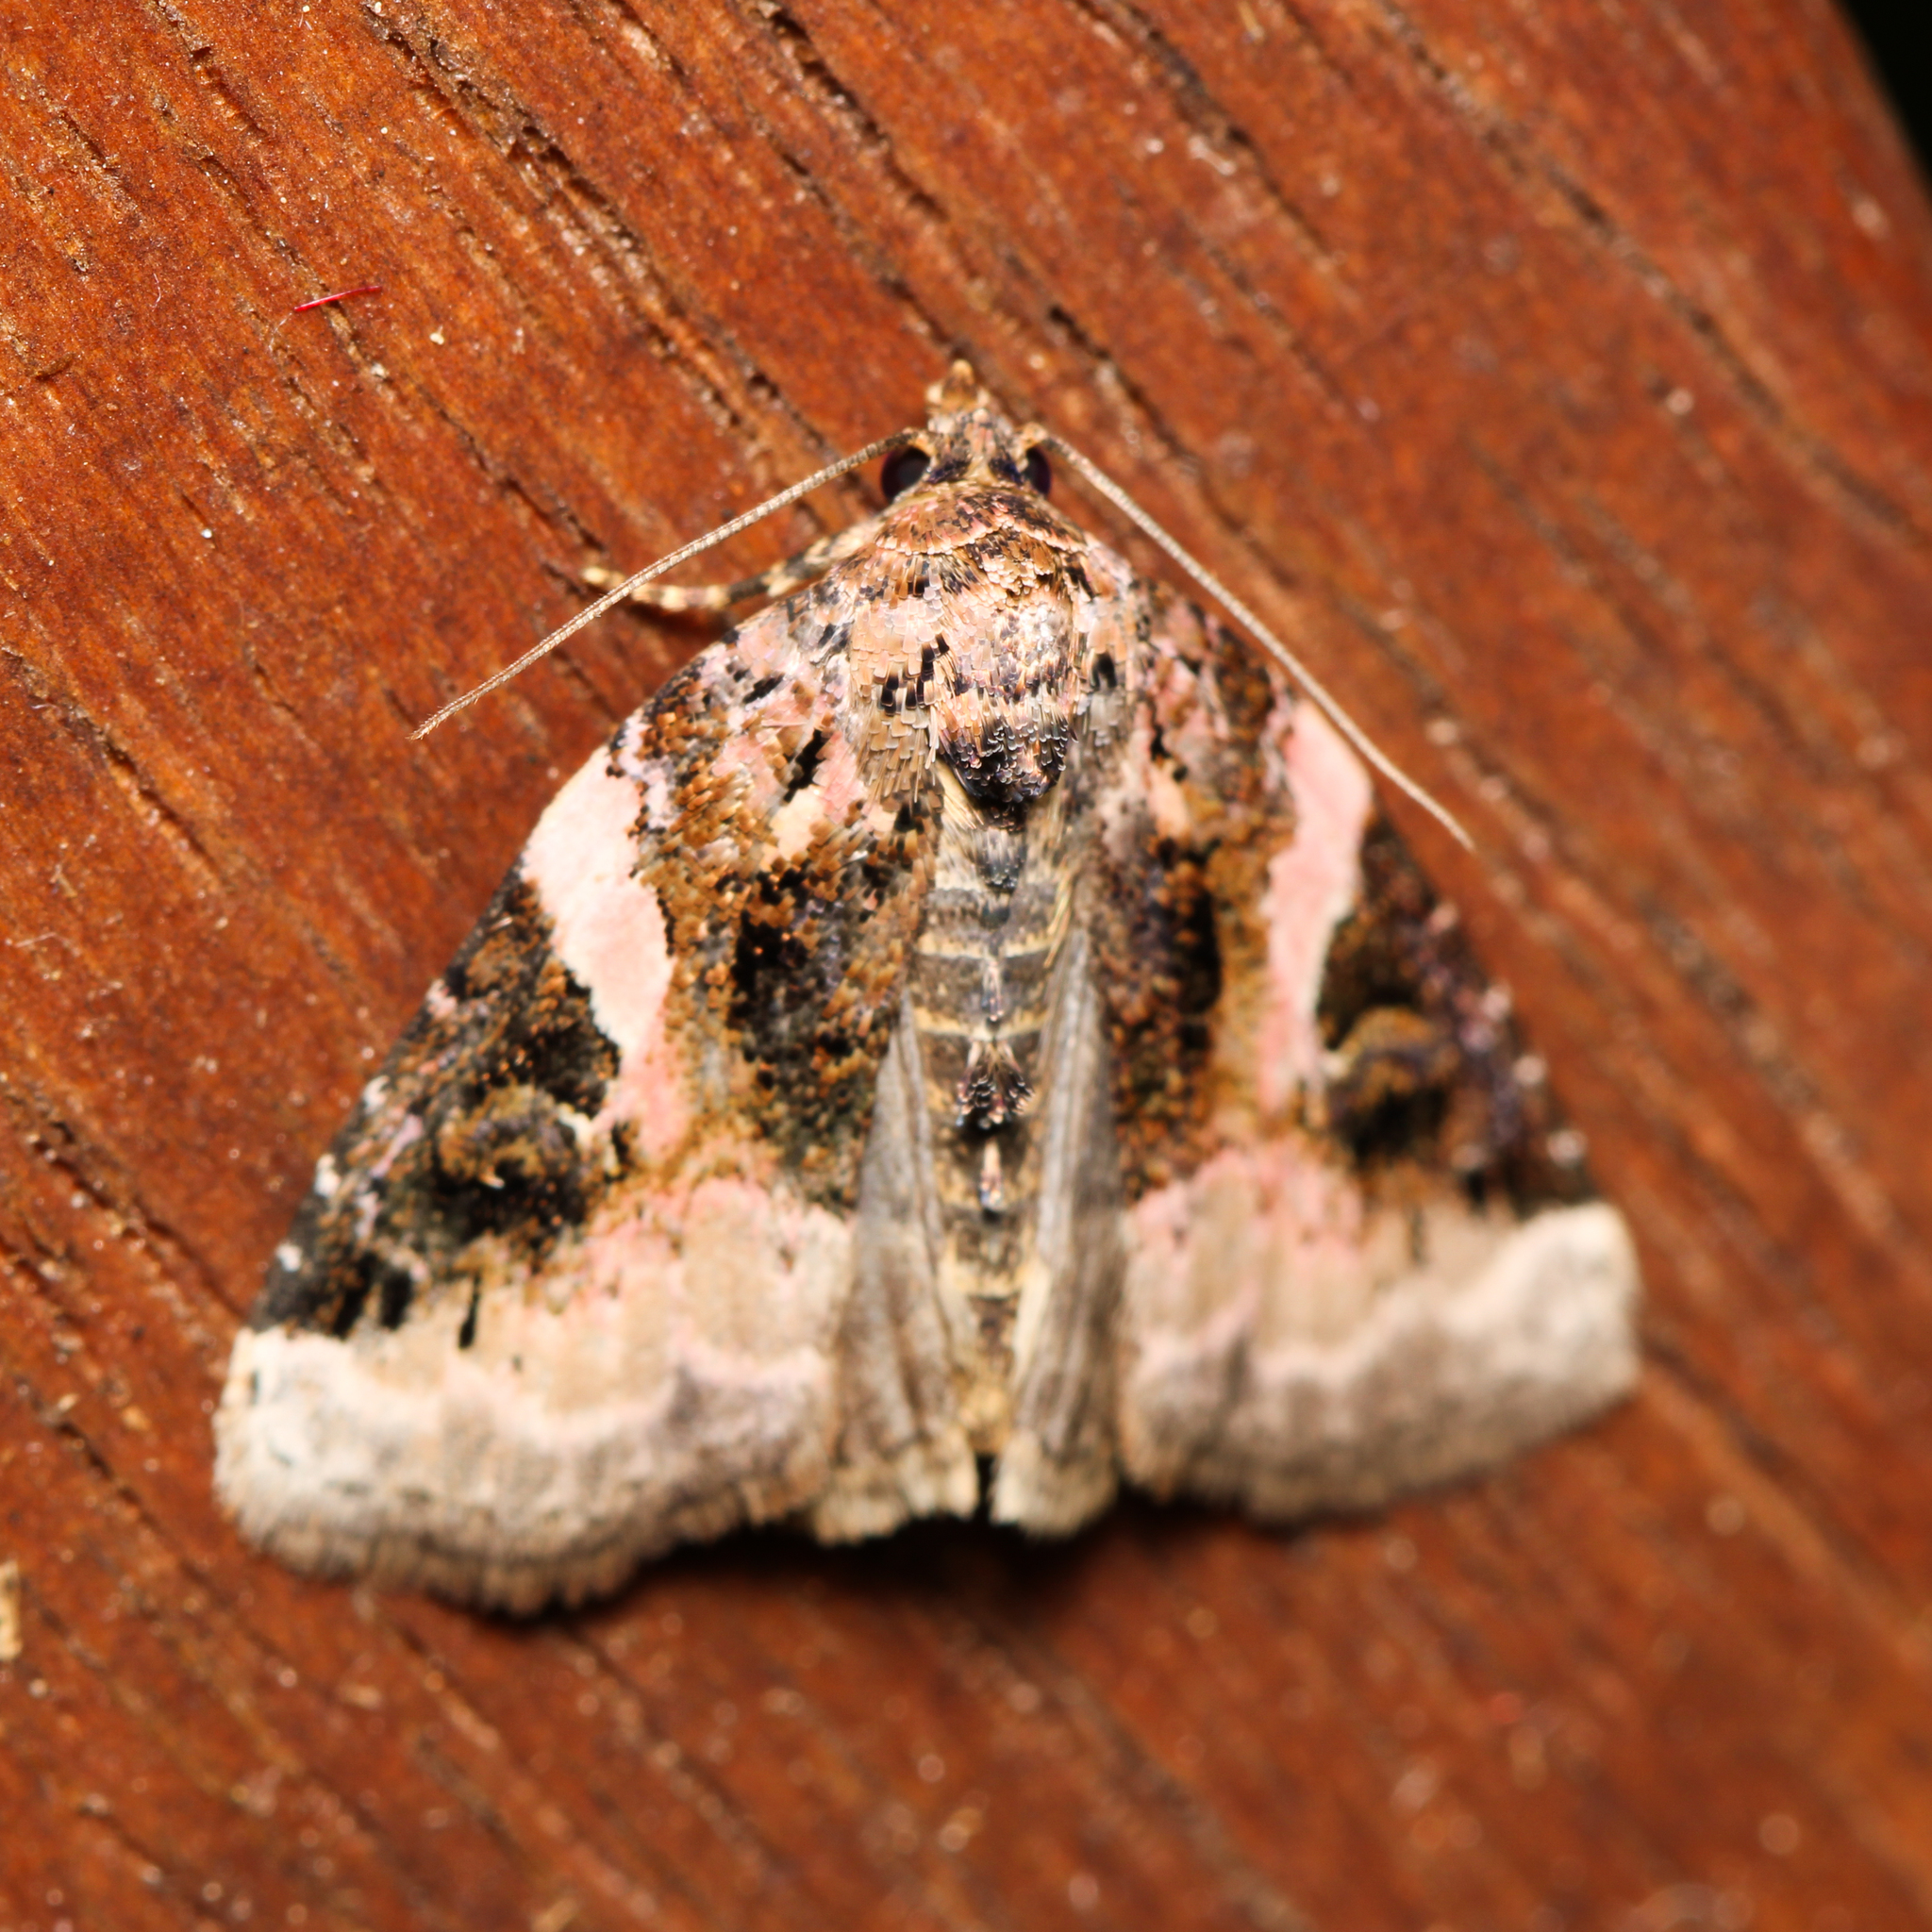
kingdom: Animalia
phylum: Arthropoda
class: Insecta
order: Lepidoptera
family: Noctuidae
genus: Pseudeustrotia
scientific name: Pseudeustrotia carneola
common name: Pink-barred lithacodia moth
